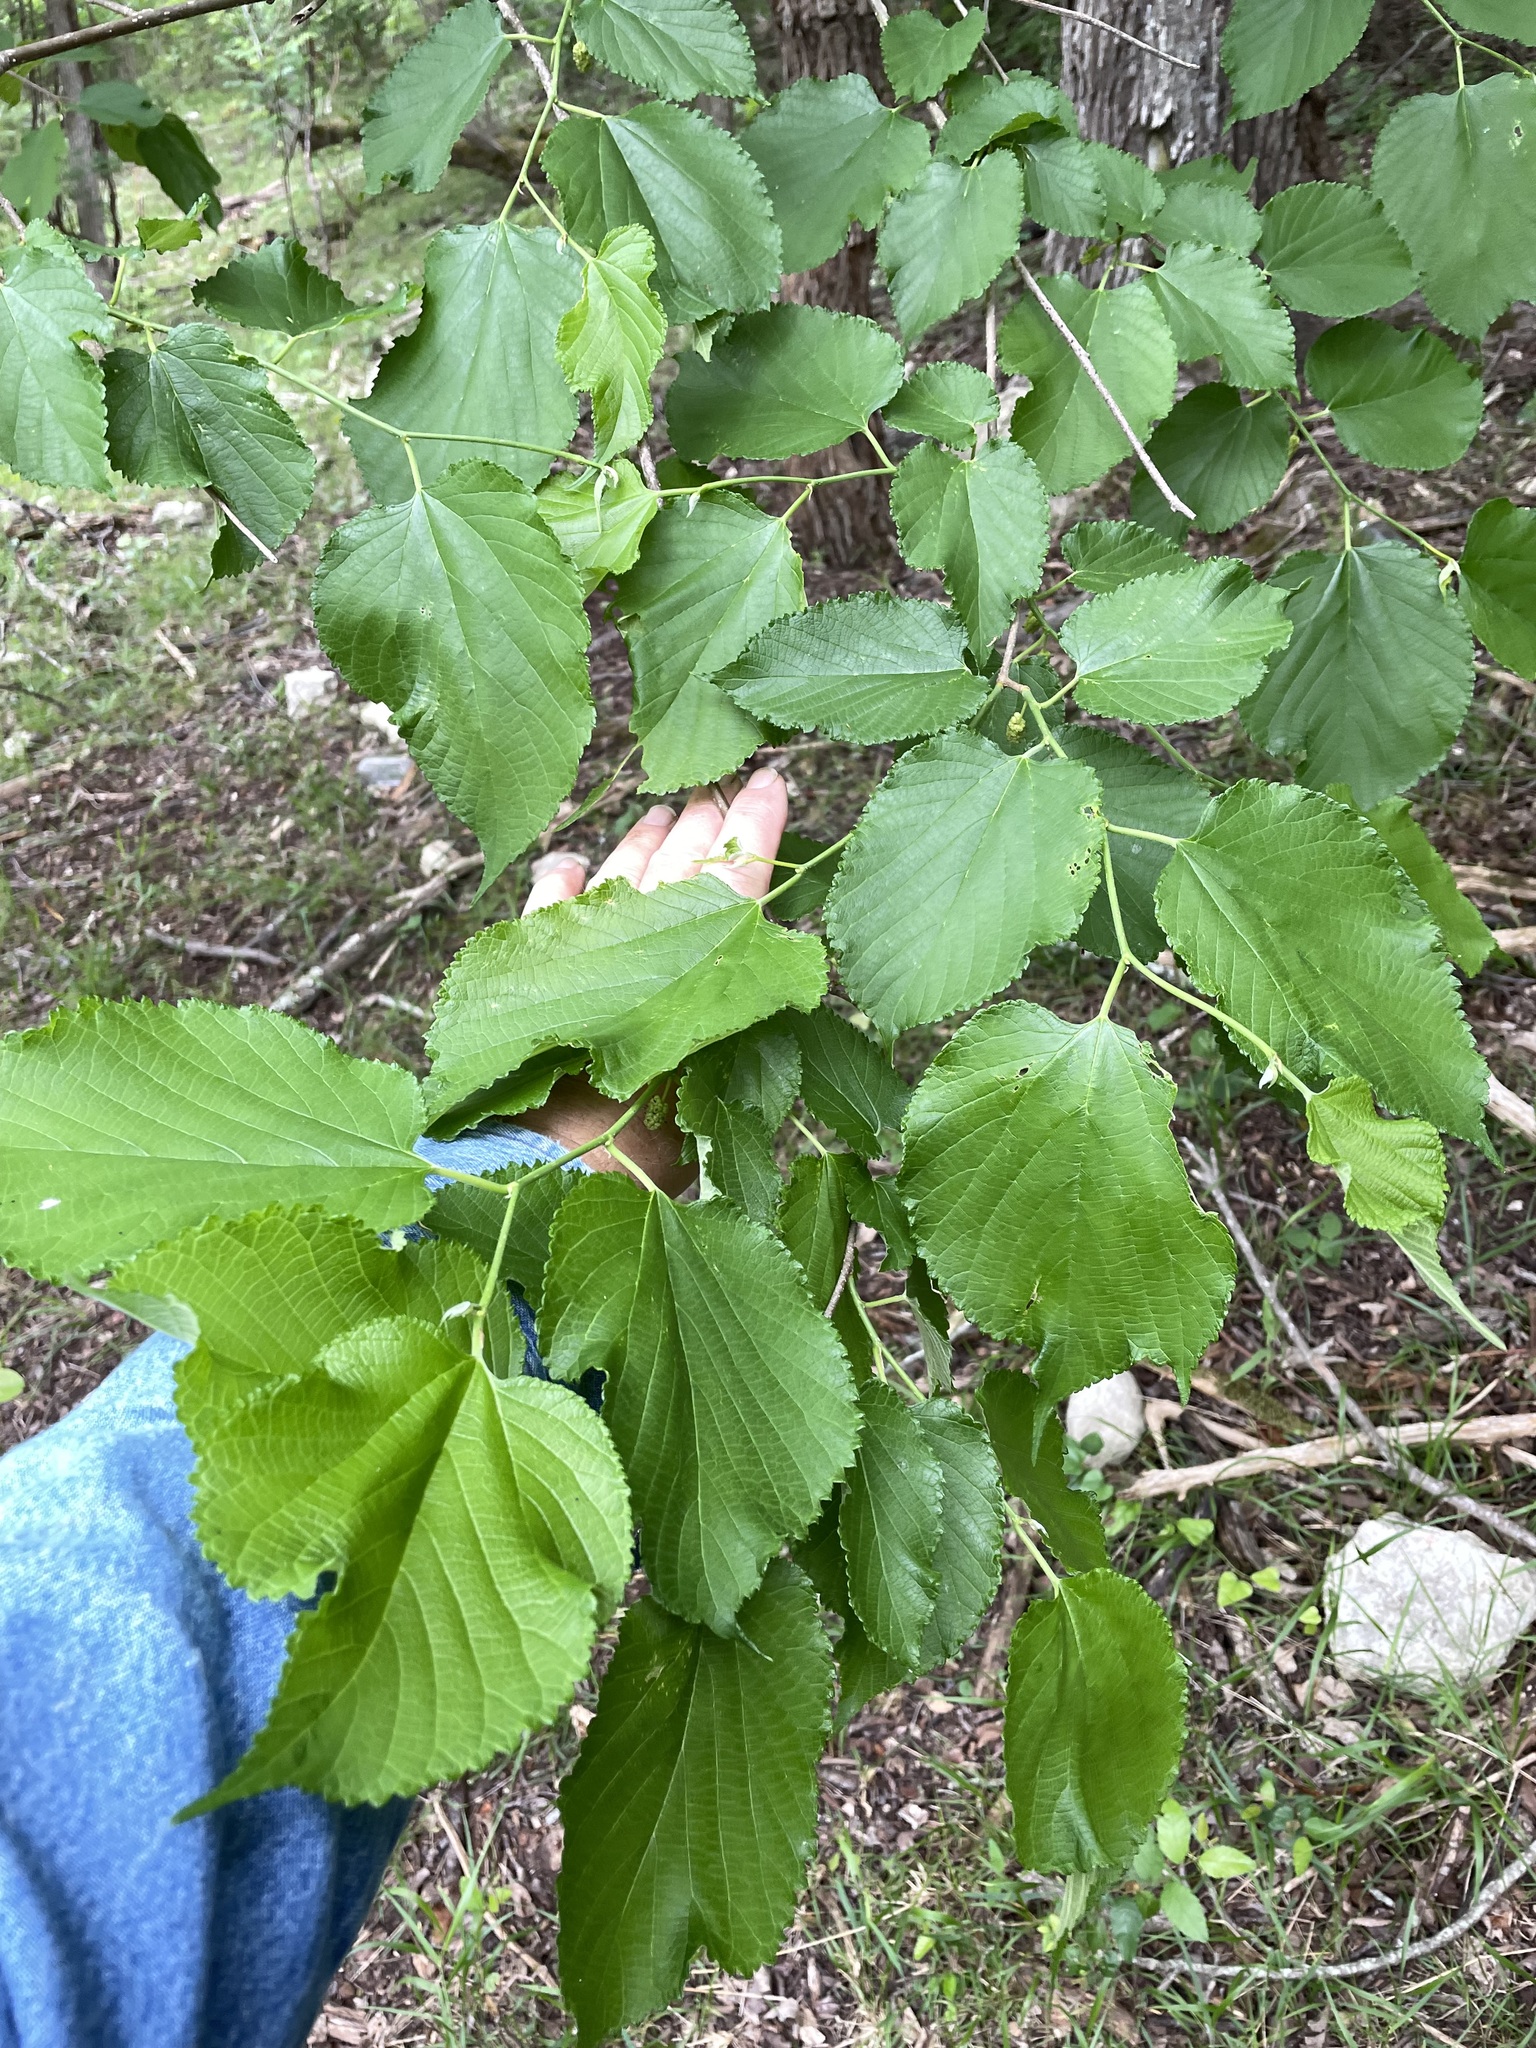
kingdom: Plantae
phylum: Tracheophyta
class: Magnoliopsida
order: Rosales
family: Moraceae
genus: Morus
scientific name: Morus rubra
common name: Red mulberry
